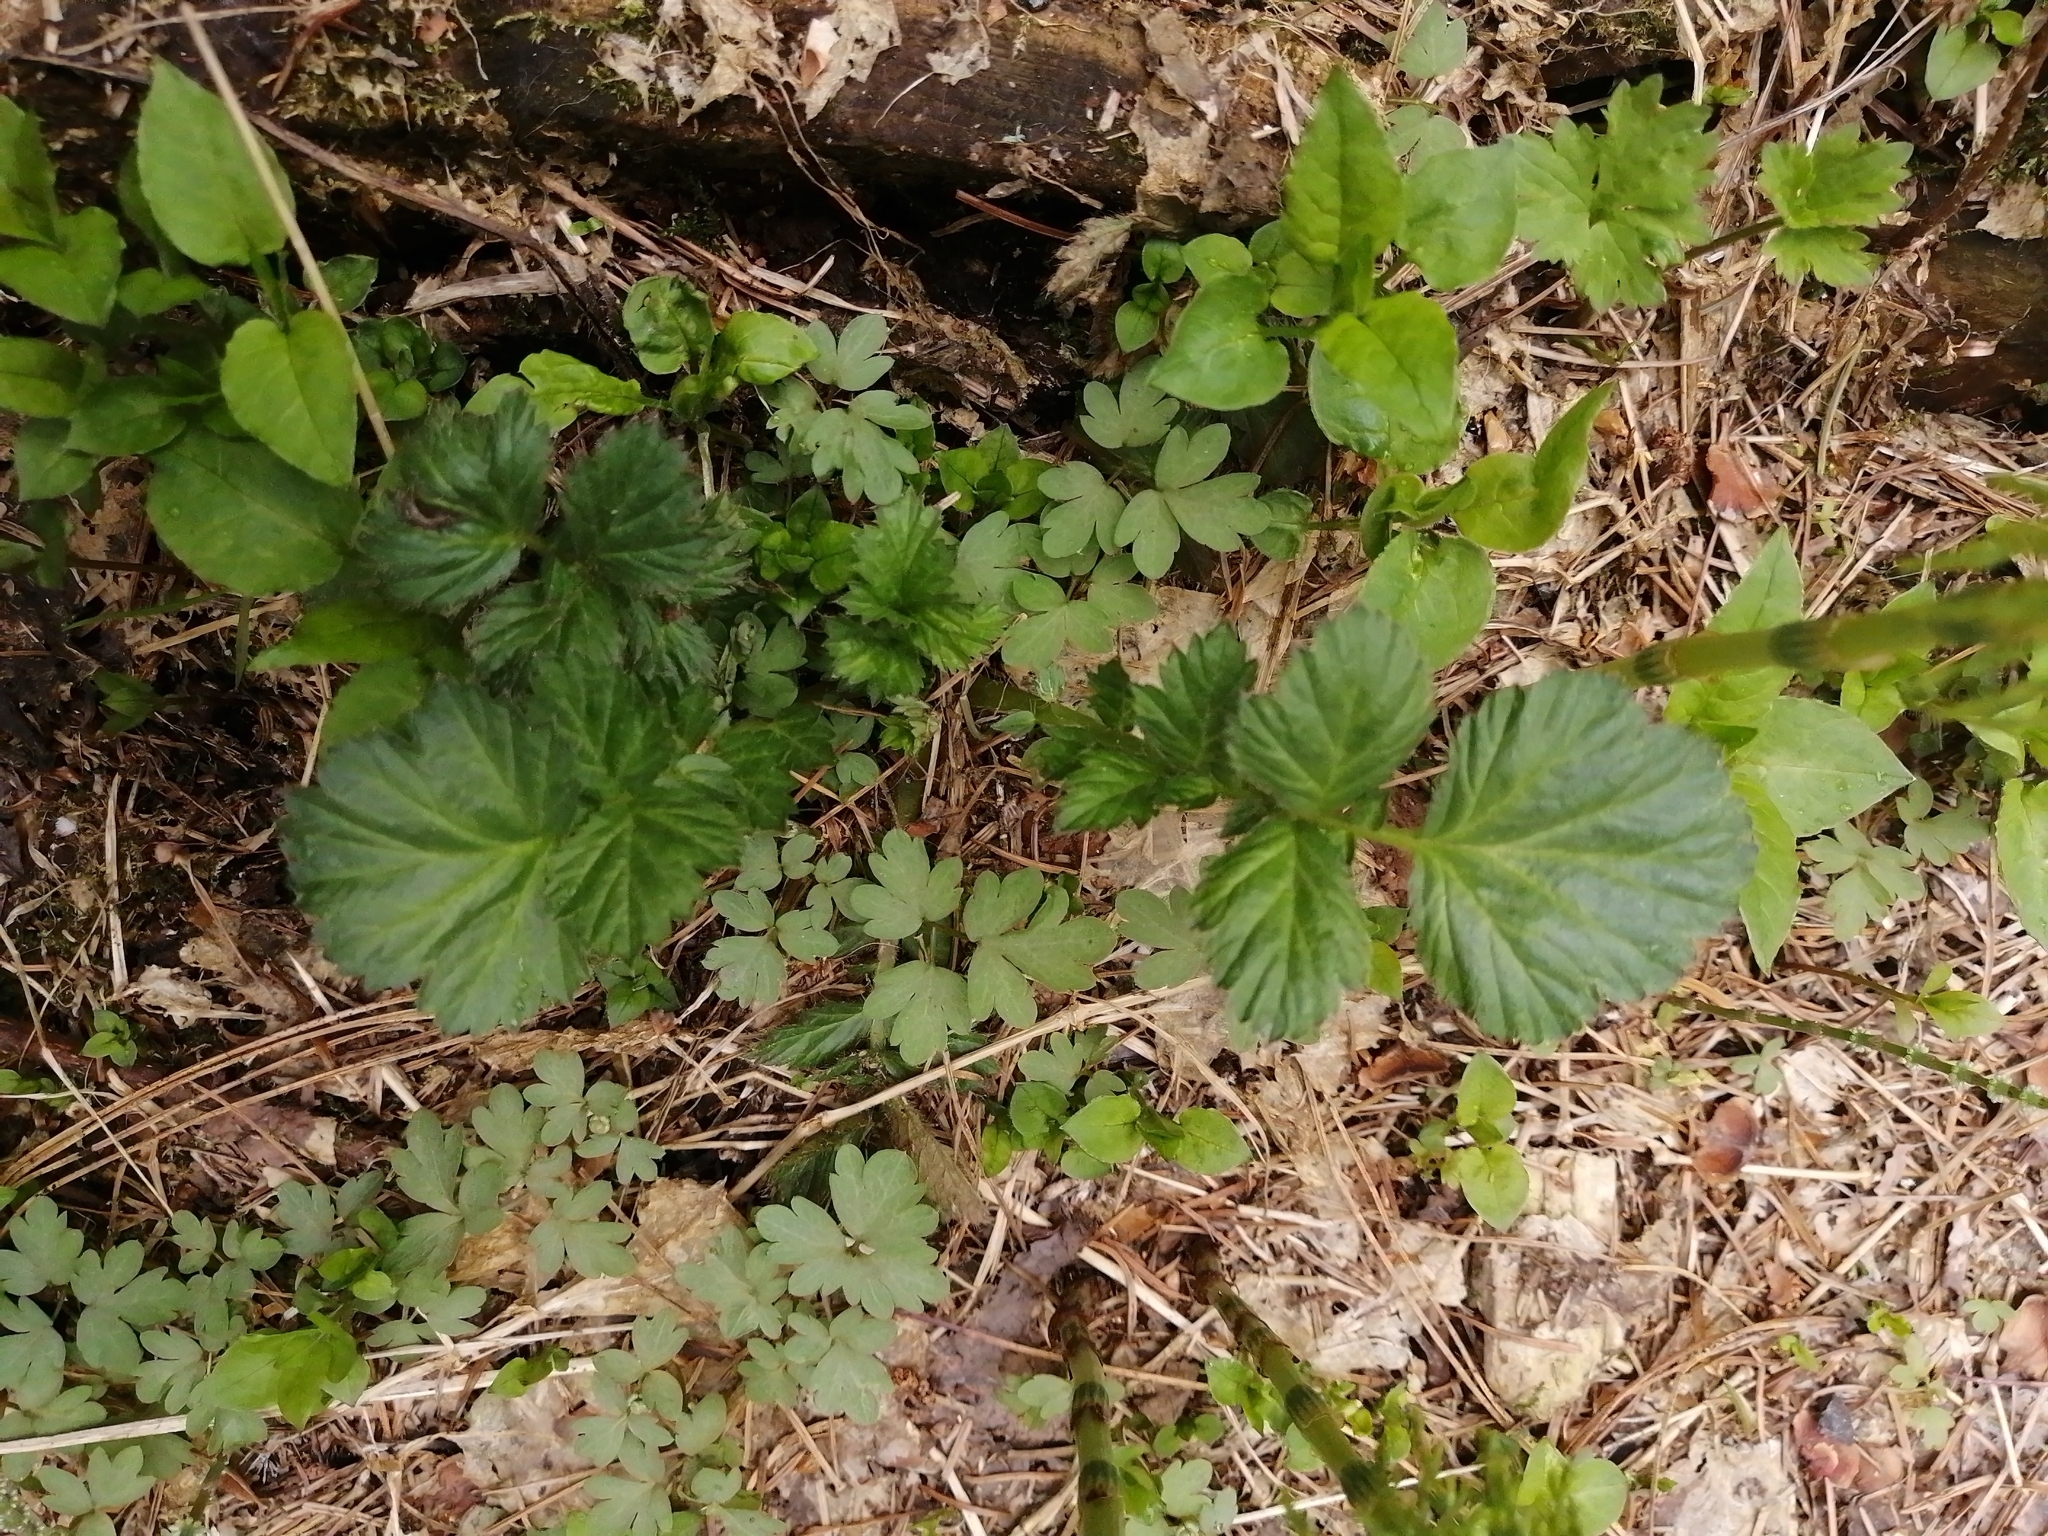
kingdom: Plantae
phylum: Tracheophyta
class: Magnoliopsida
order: Rosales
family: Rosaceae
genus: Geum
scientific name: Geum aleppicum
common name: Yellow avens
